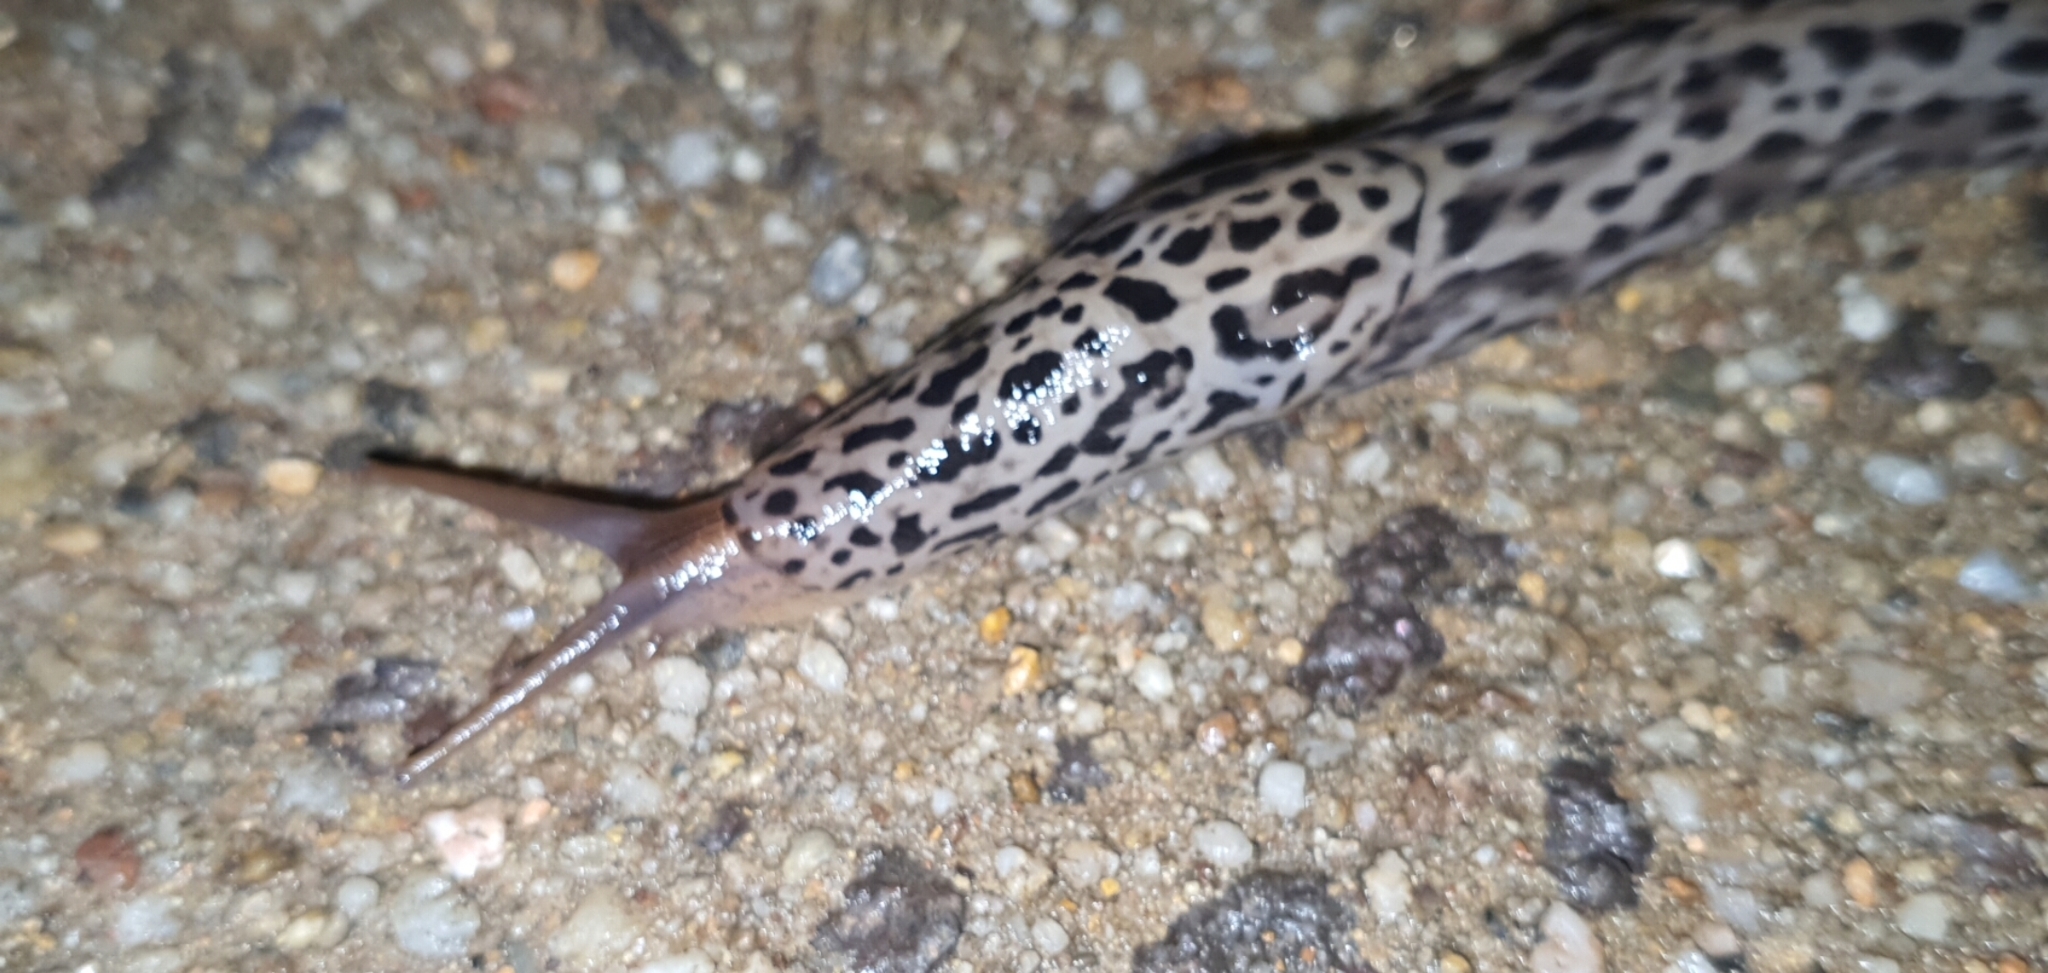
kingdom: Animalia
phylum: Mollusca
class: Gastropoda
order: Stylommatophora
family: Limacidae
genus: Limax
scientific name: Limax maximus
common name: Great grey slug
